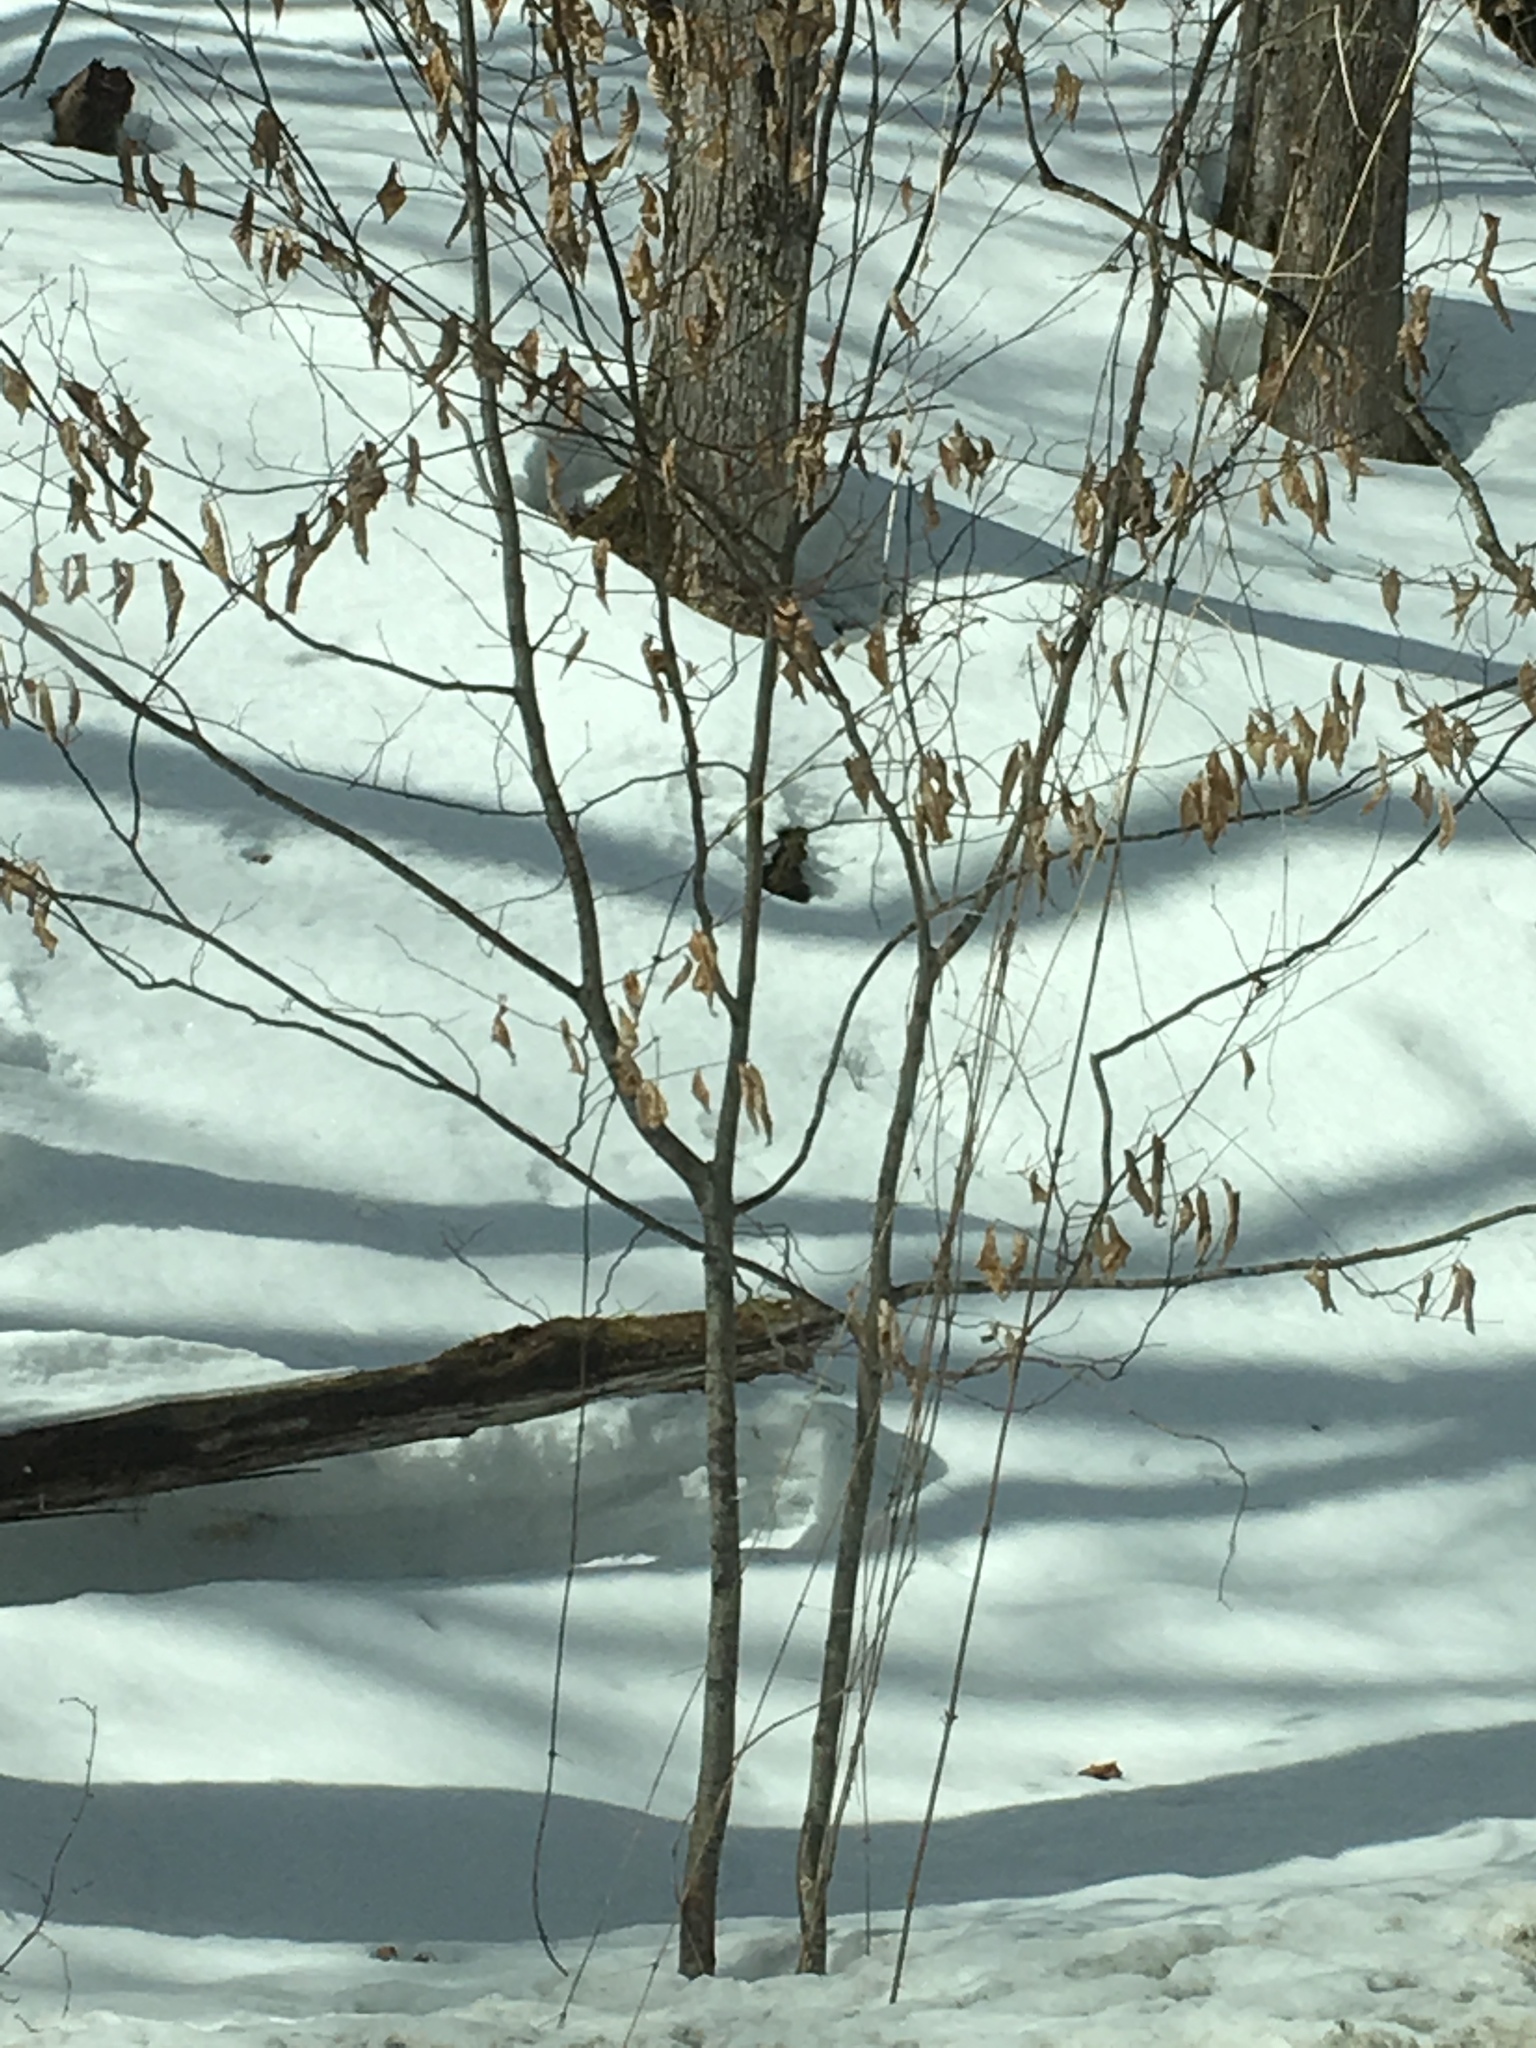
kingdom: Plantae
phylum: Tracheophyta
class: Magnoliopsida
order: Fagales
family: Fagaceae
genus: Fagus
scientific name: Fagus grandifolia
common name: American beech
